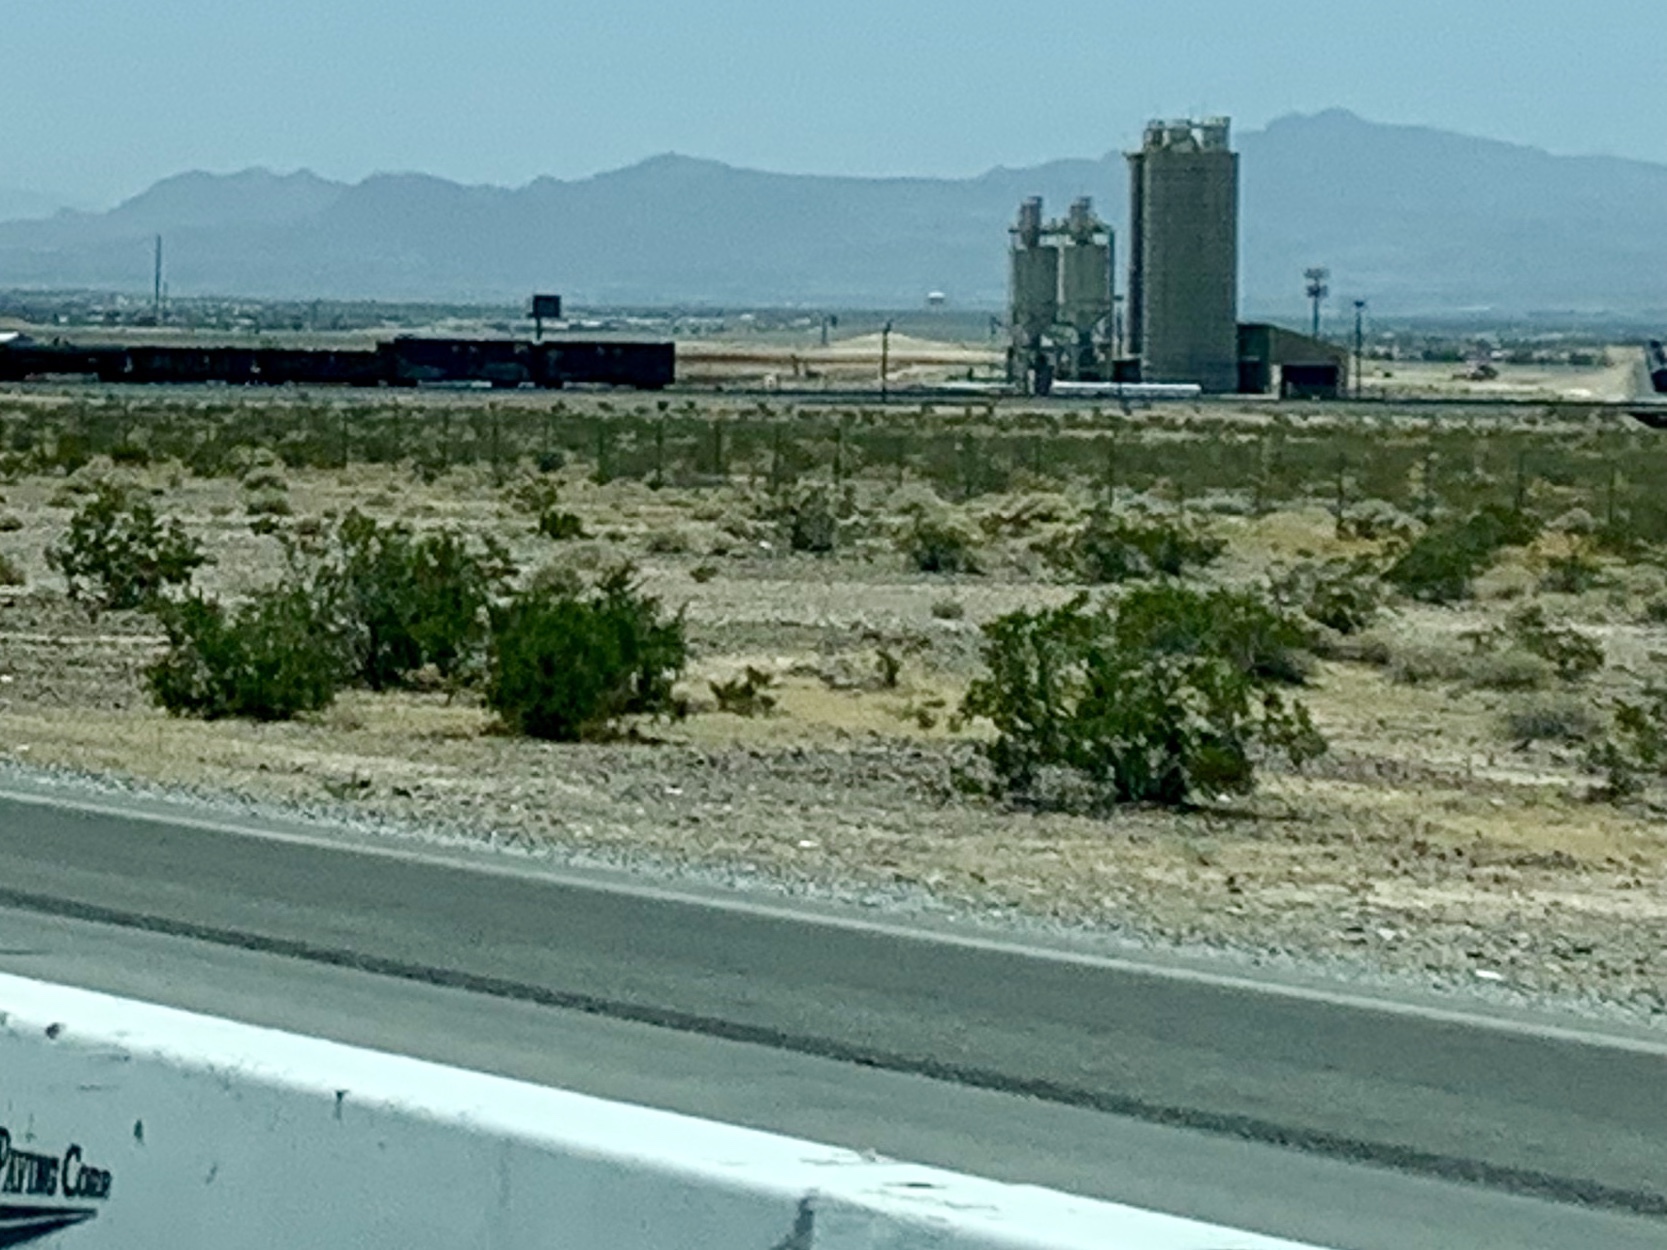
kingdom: Plantae
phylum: Tracheophyta
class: Magnoliopsida
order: Zygophyllales
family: Zygophyllaceae
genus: Larrea
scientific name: Larrea tridentata
